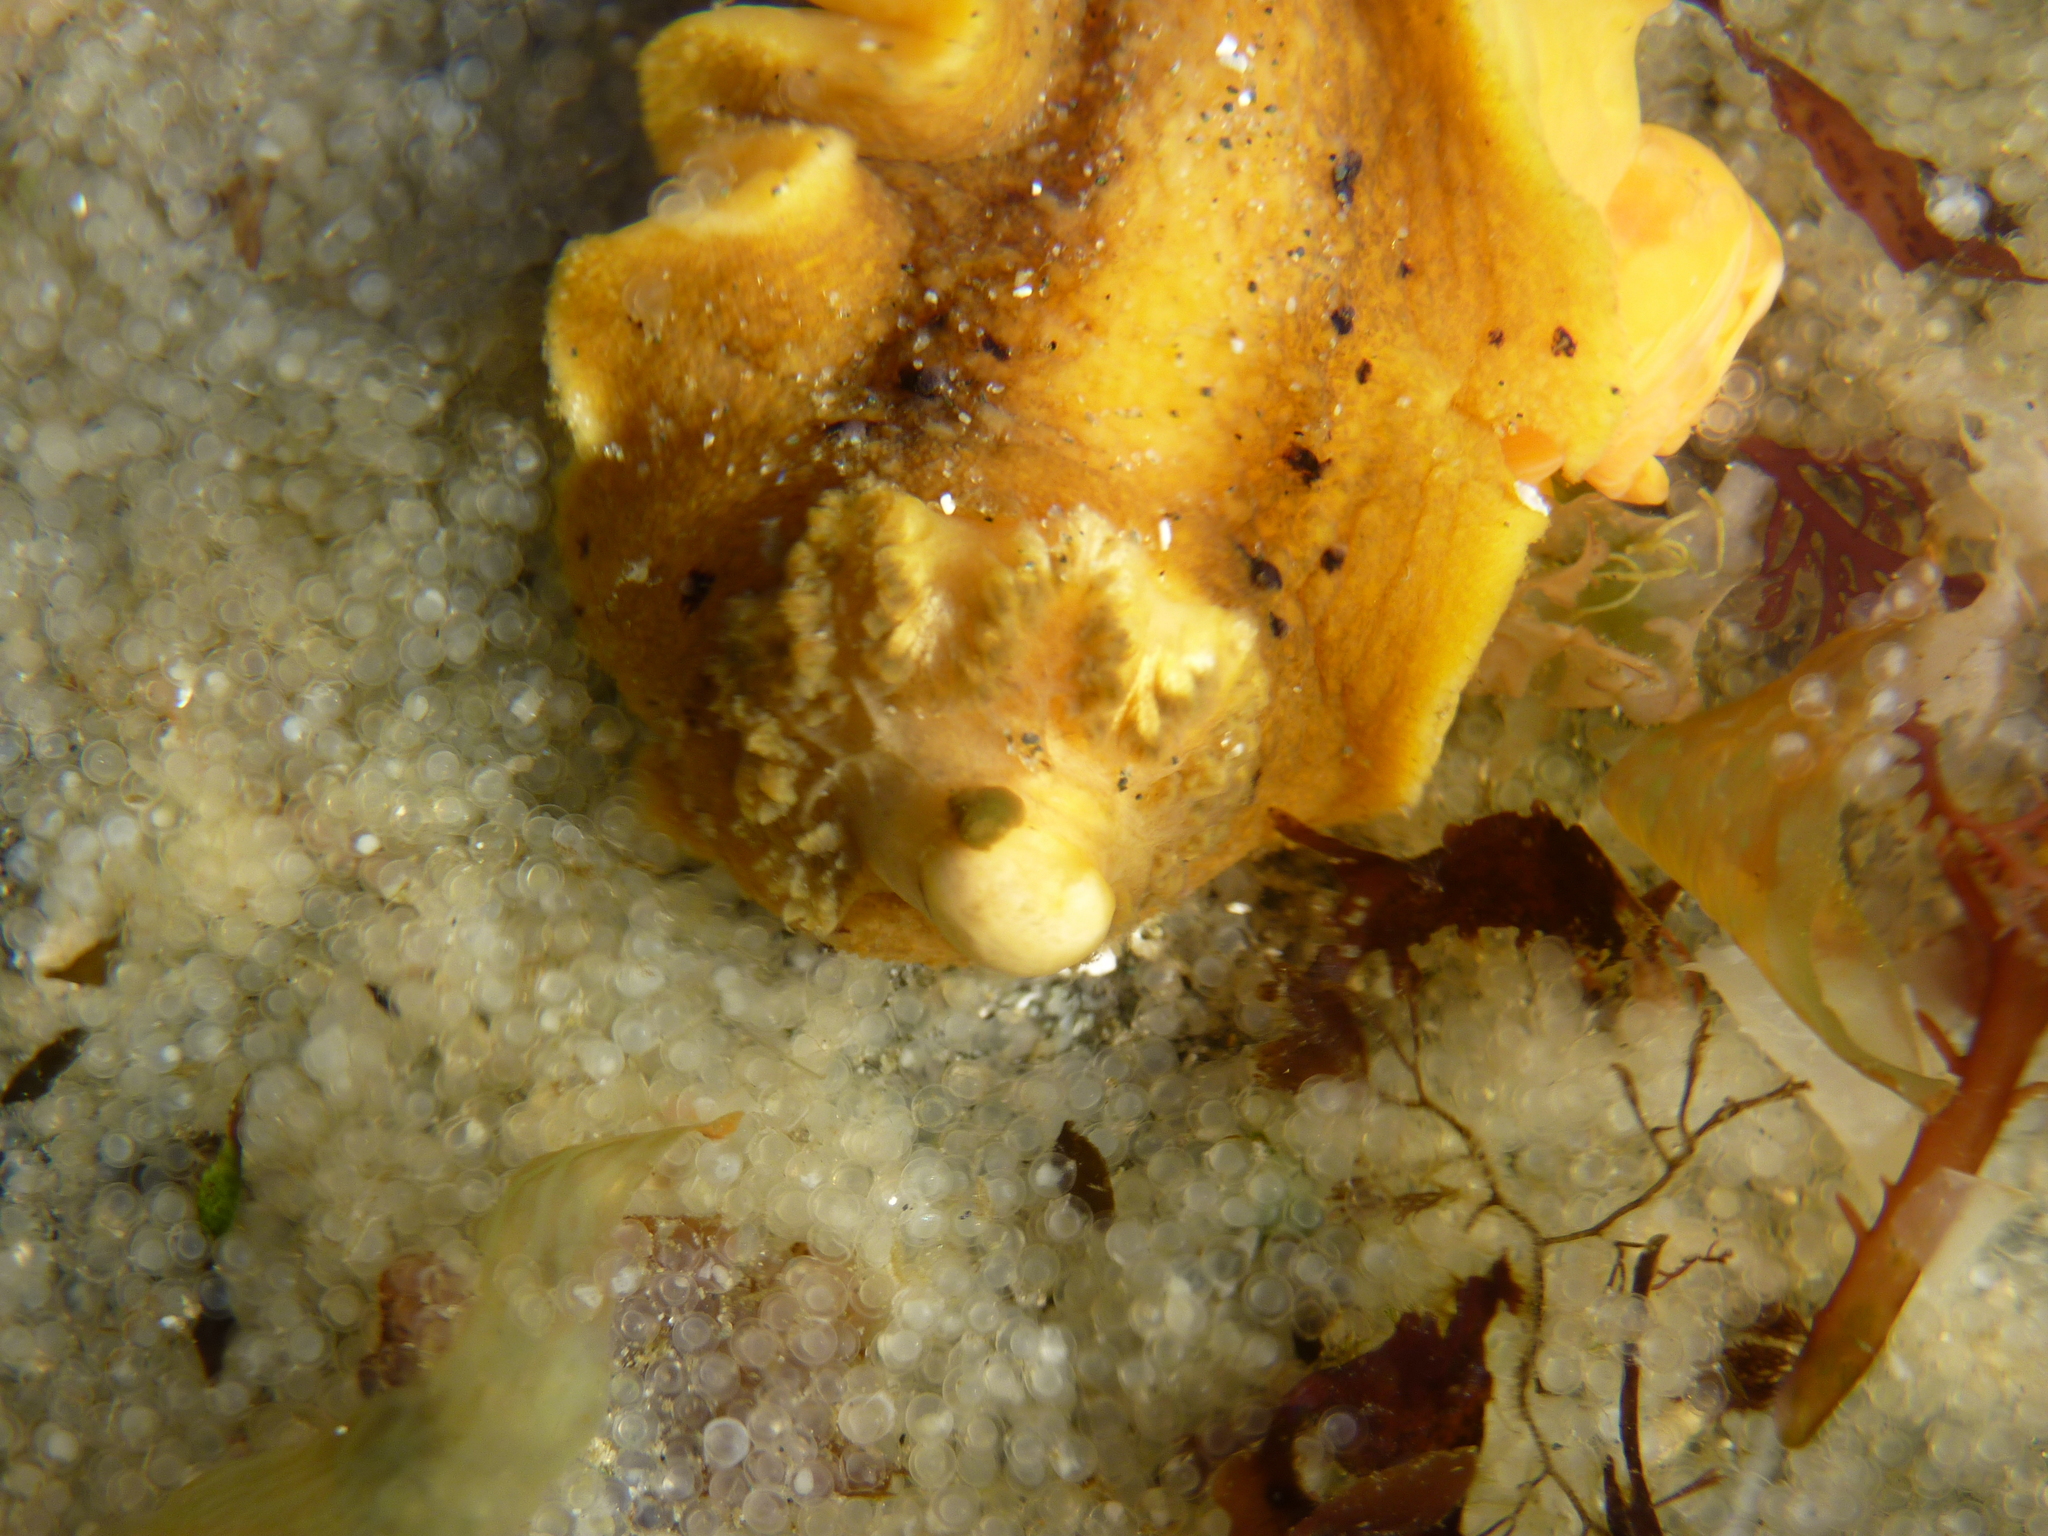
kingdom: Animalia
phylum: Mollusca
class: Gastropoda
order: Nudibranchia
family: Dorididae
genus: Doris
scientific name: Doris montereyensis
